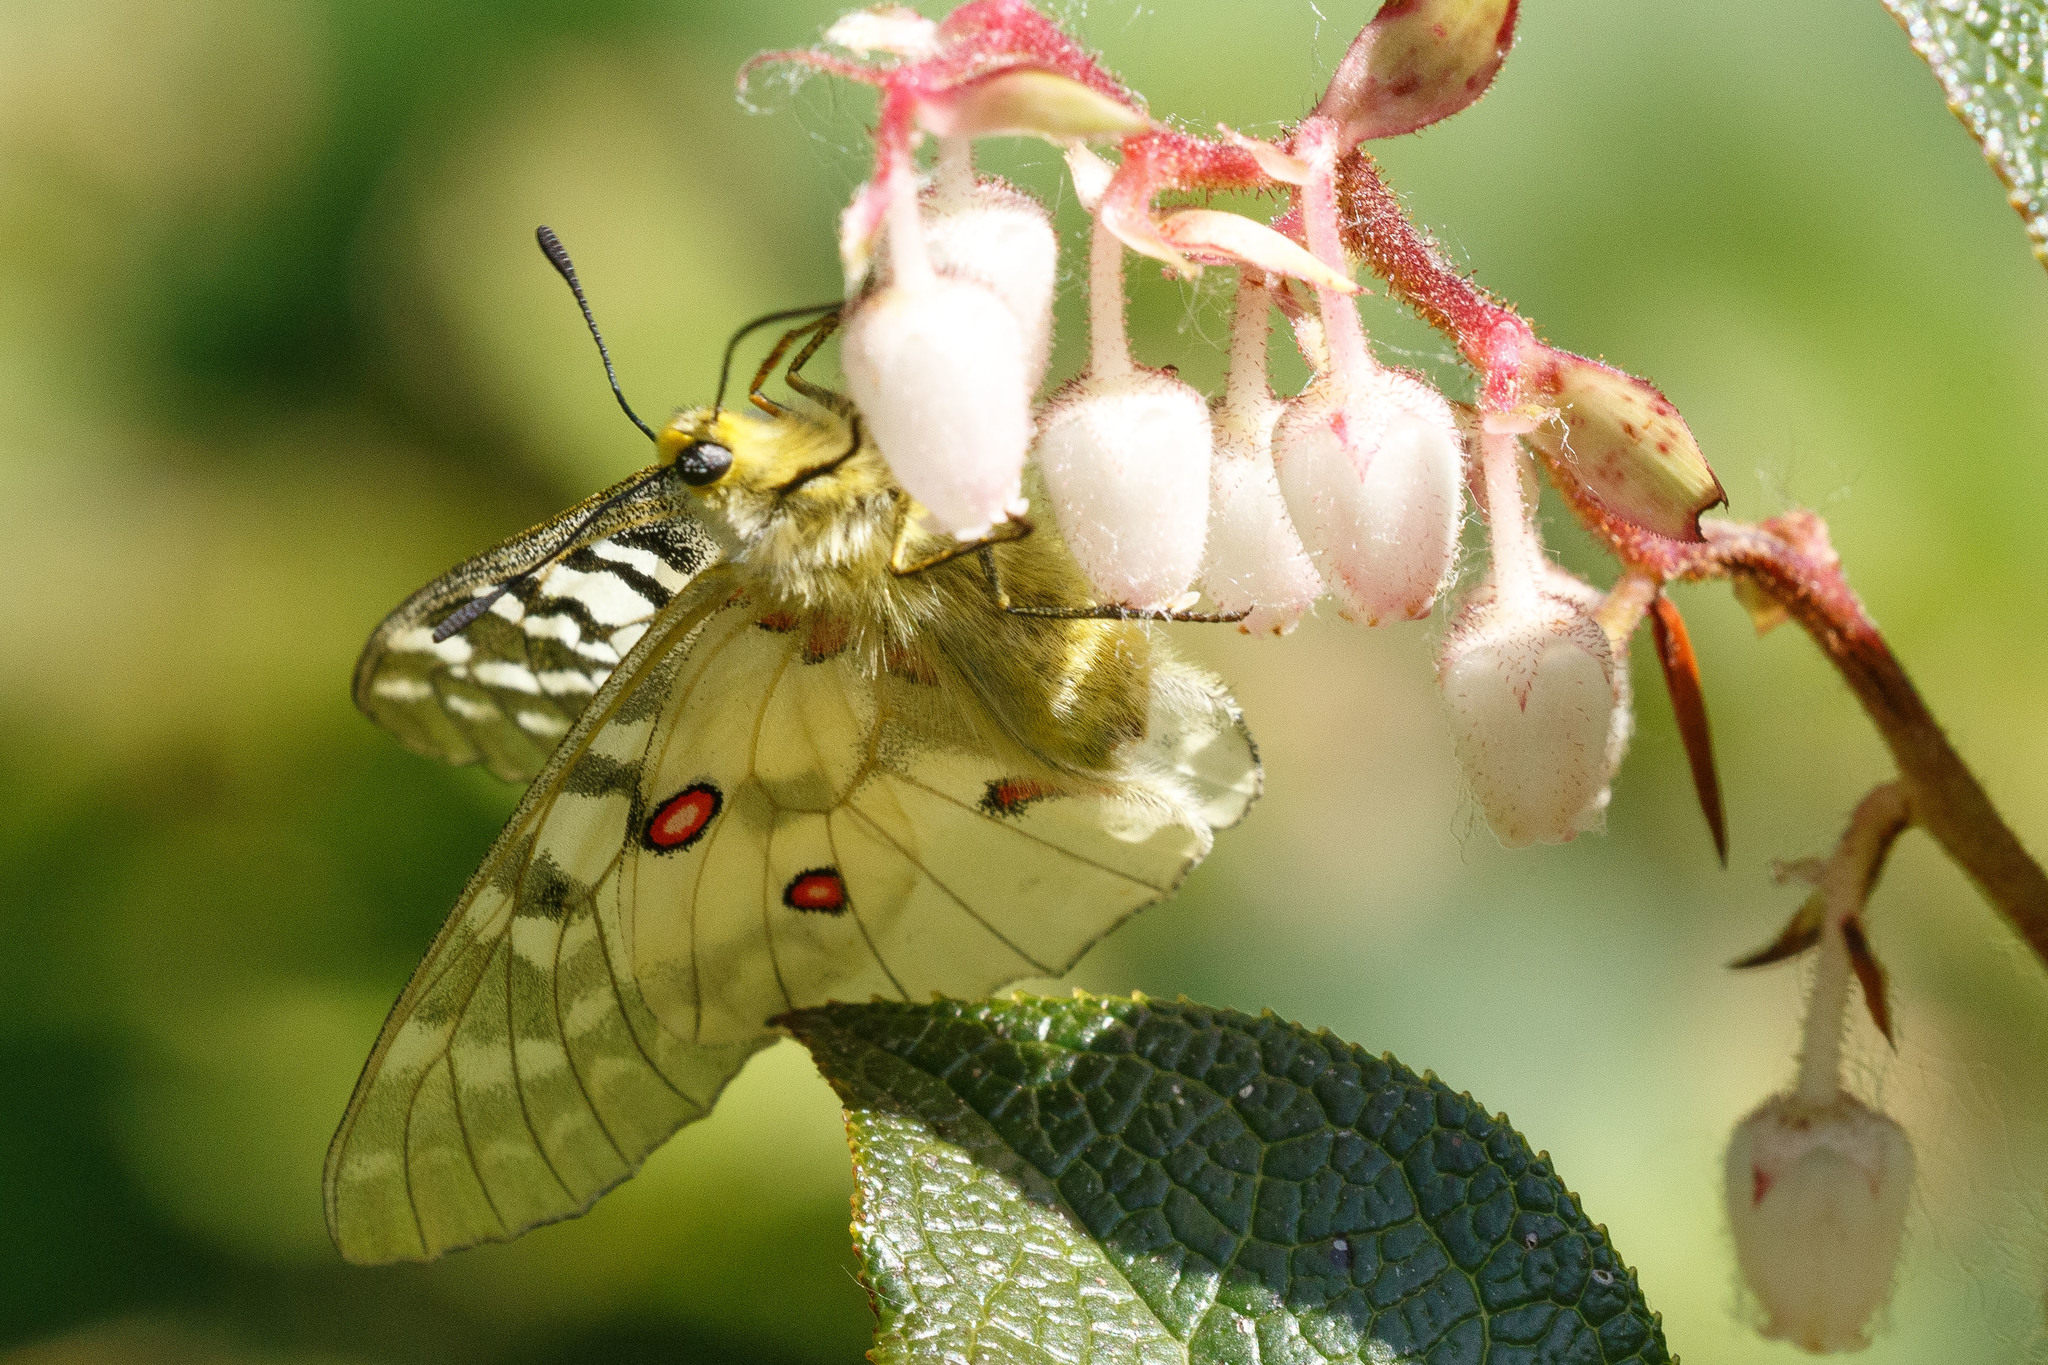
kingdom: Animalia
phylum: Arthropoda
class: Insecta
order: Lepidoptera
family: Papilionidae
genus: Parnassius
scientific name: Parnassius clodius
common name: American apollo
